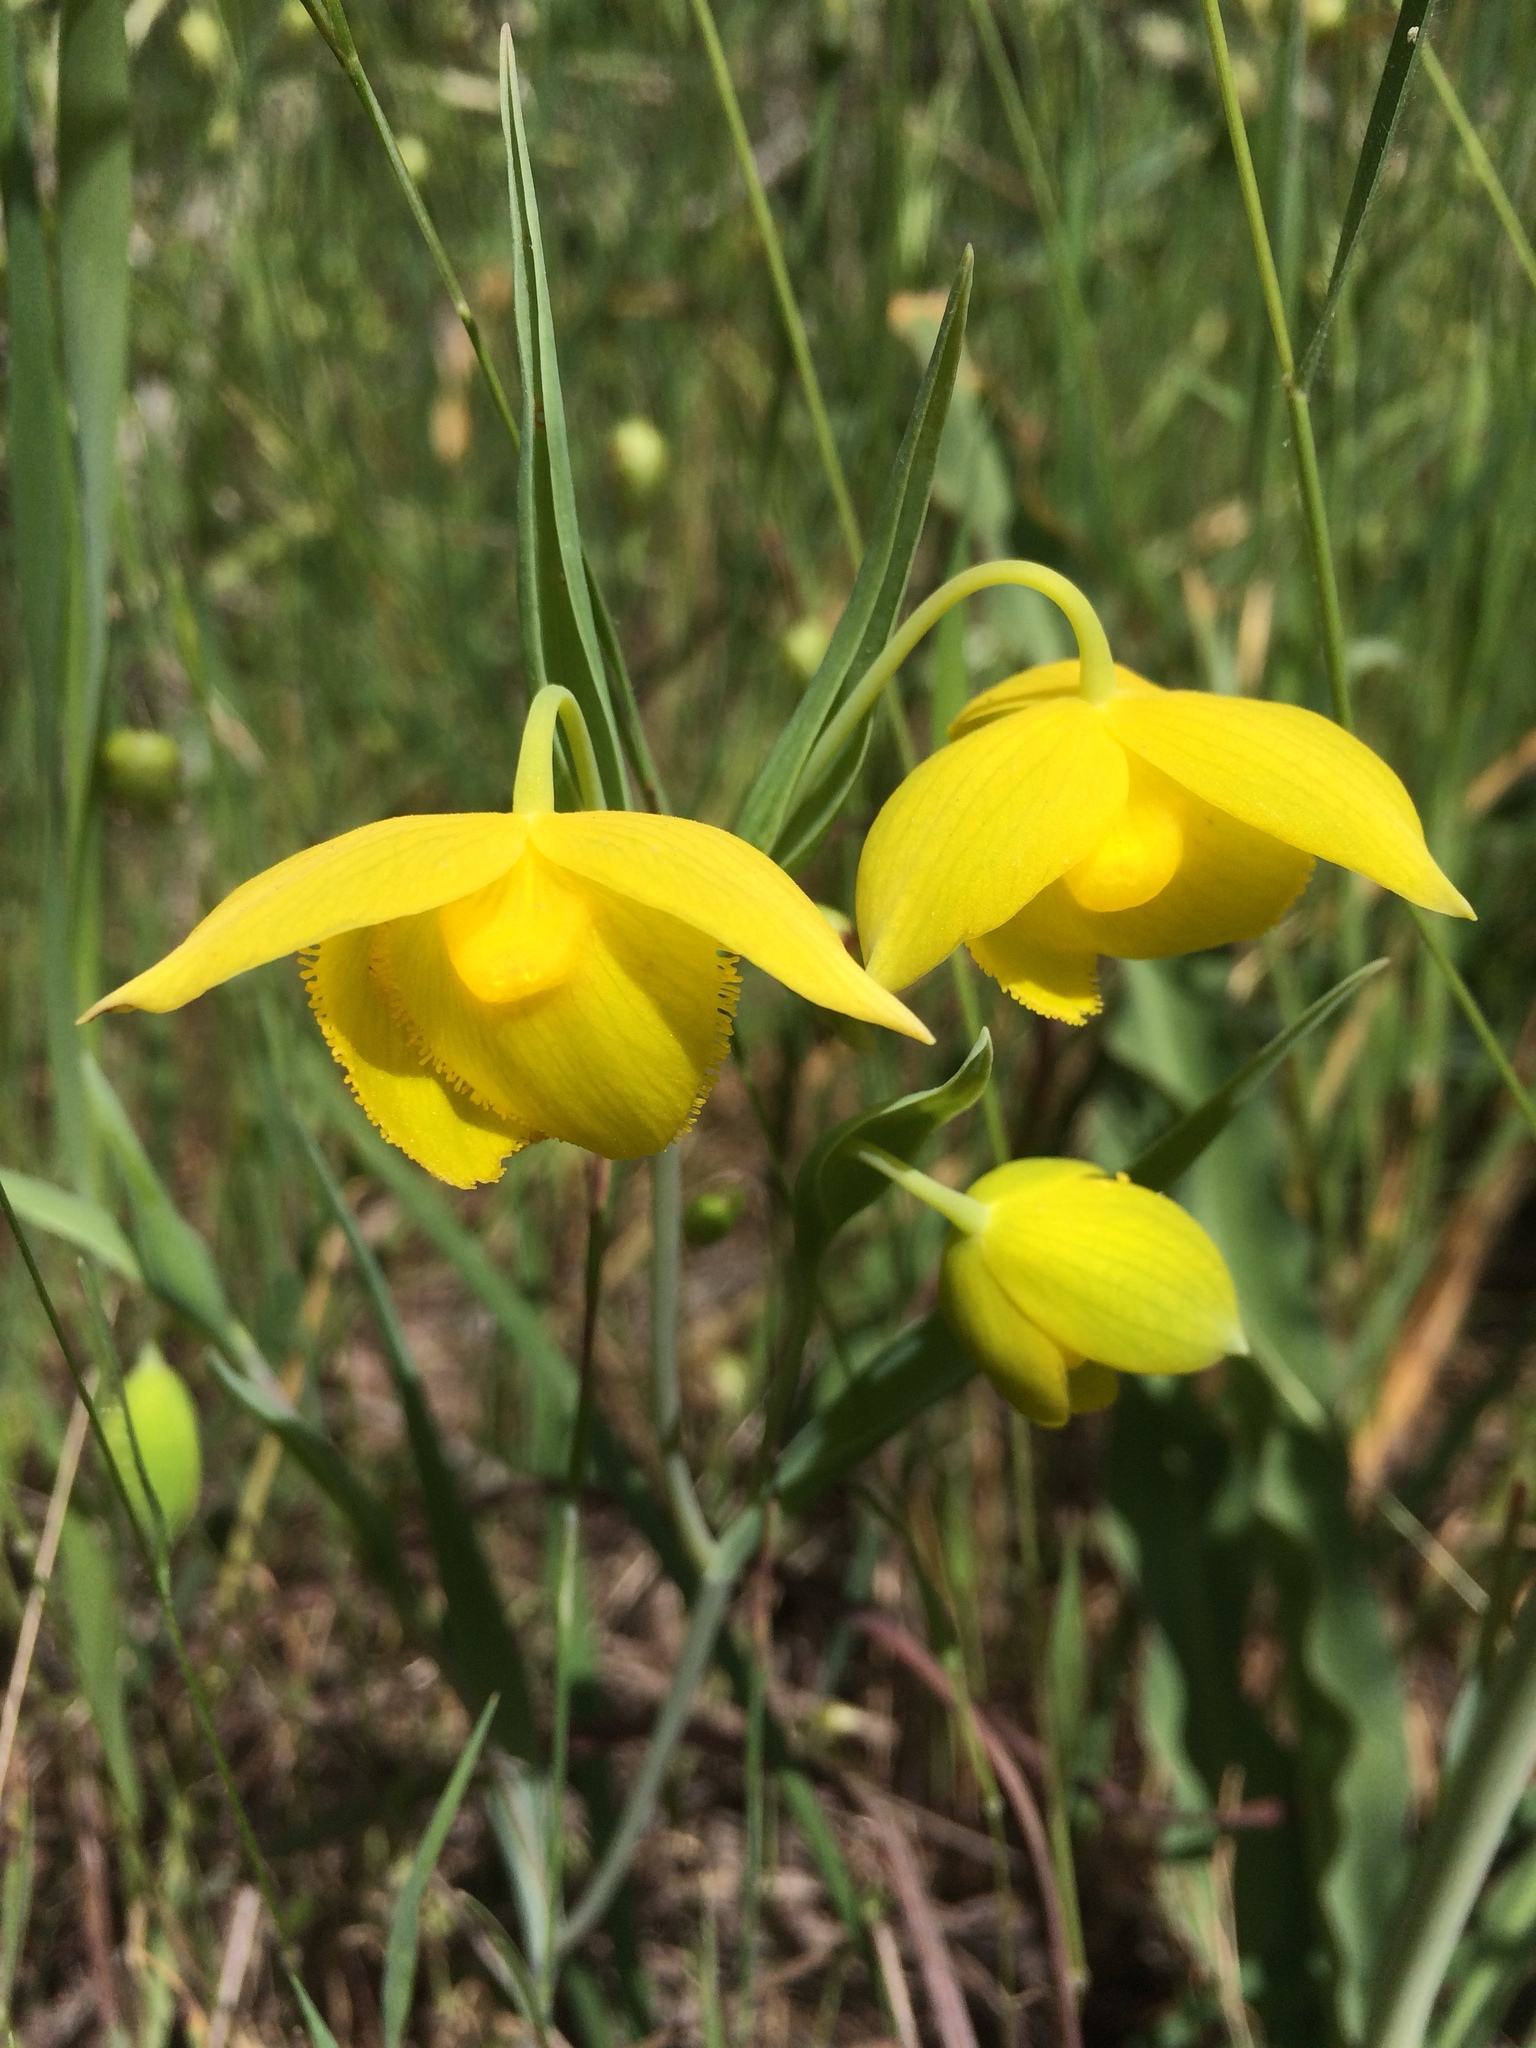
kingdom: Plantae
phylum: Tracheophyta
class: Liliopsida
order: Liliales
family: Liliaceae
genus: Calochortus
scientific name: Calochortus amabilis
